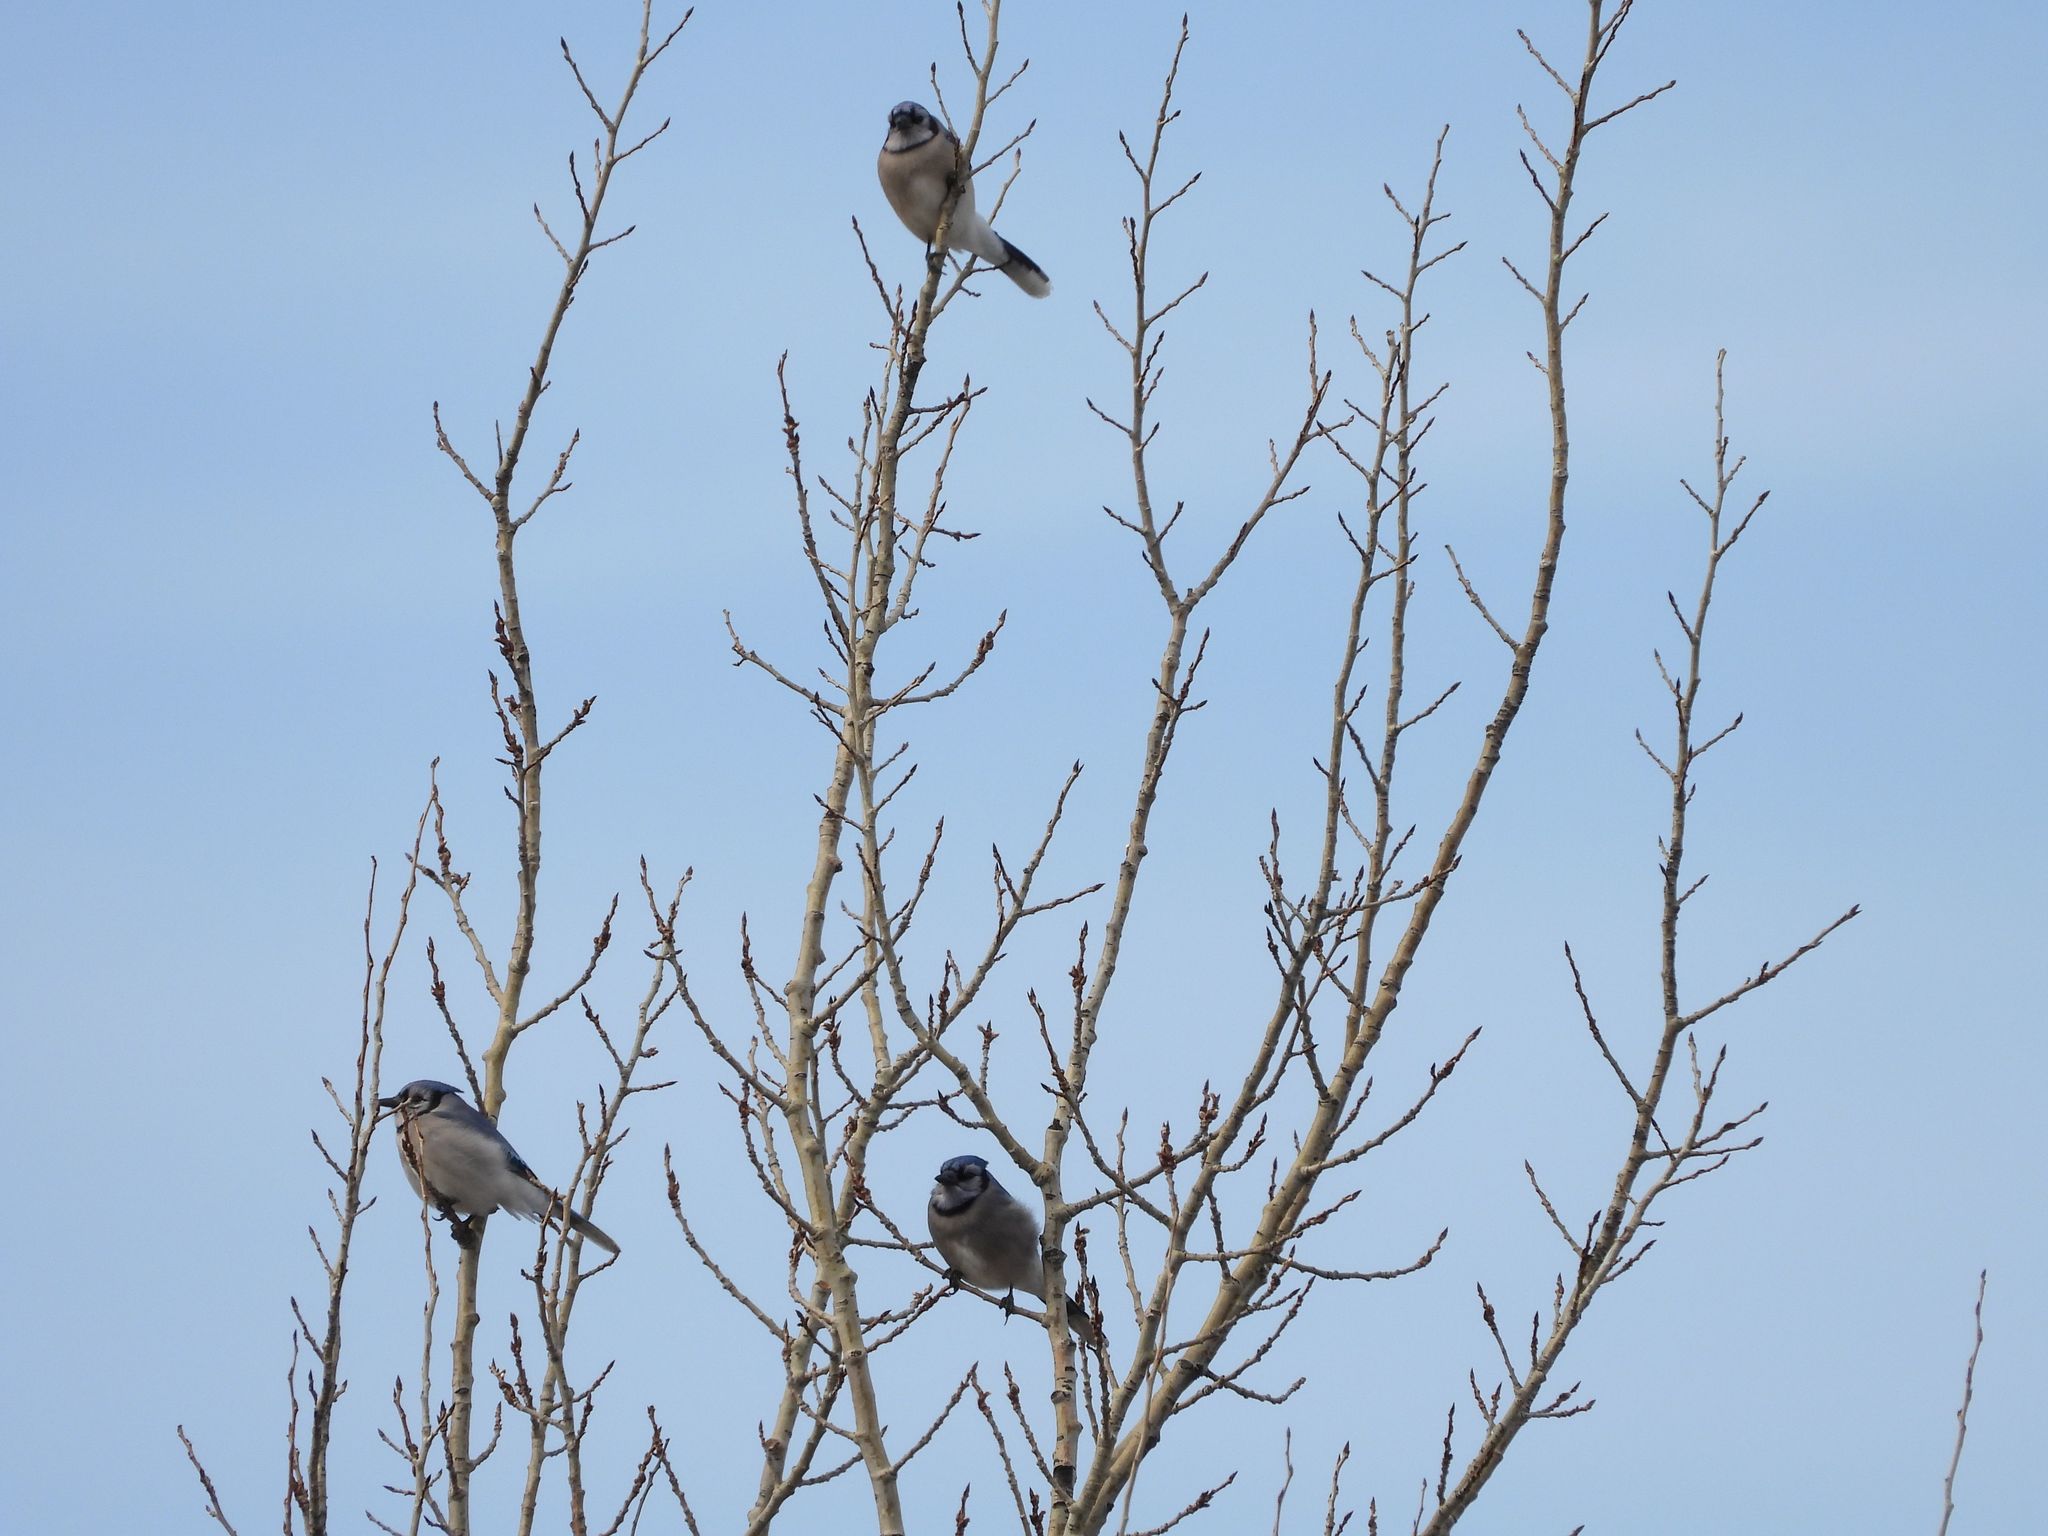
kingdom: Animalia
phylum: Chordata
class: Aves
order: Passeriformes
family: Corvidae
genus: Cyanocitta
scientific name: Cyanocitta cristata
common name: Blue jay
